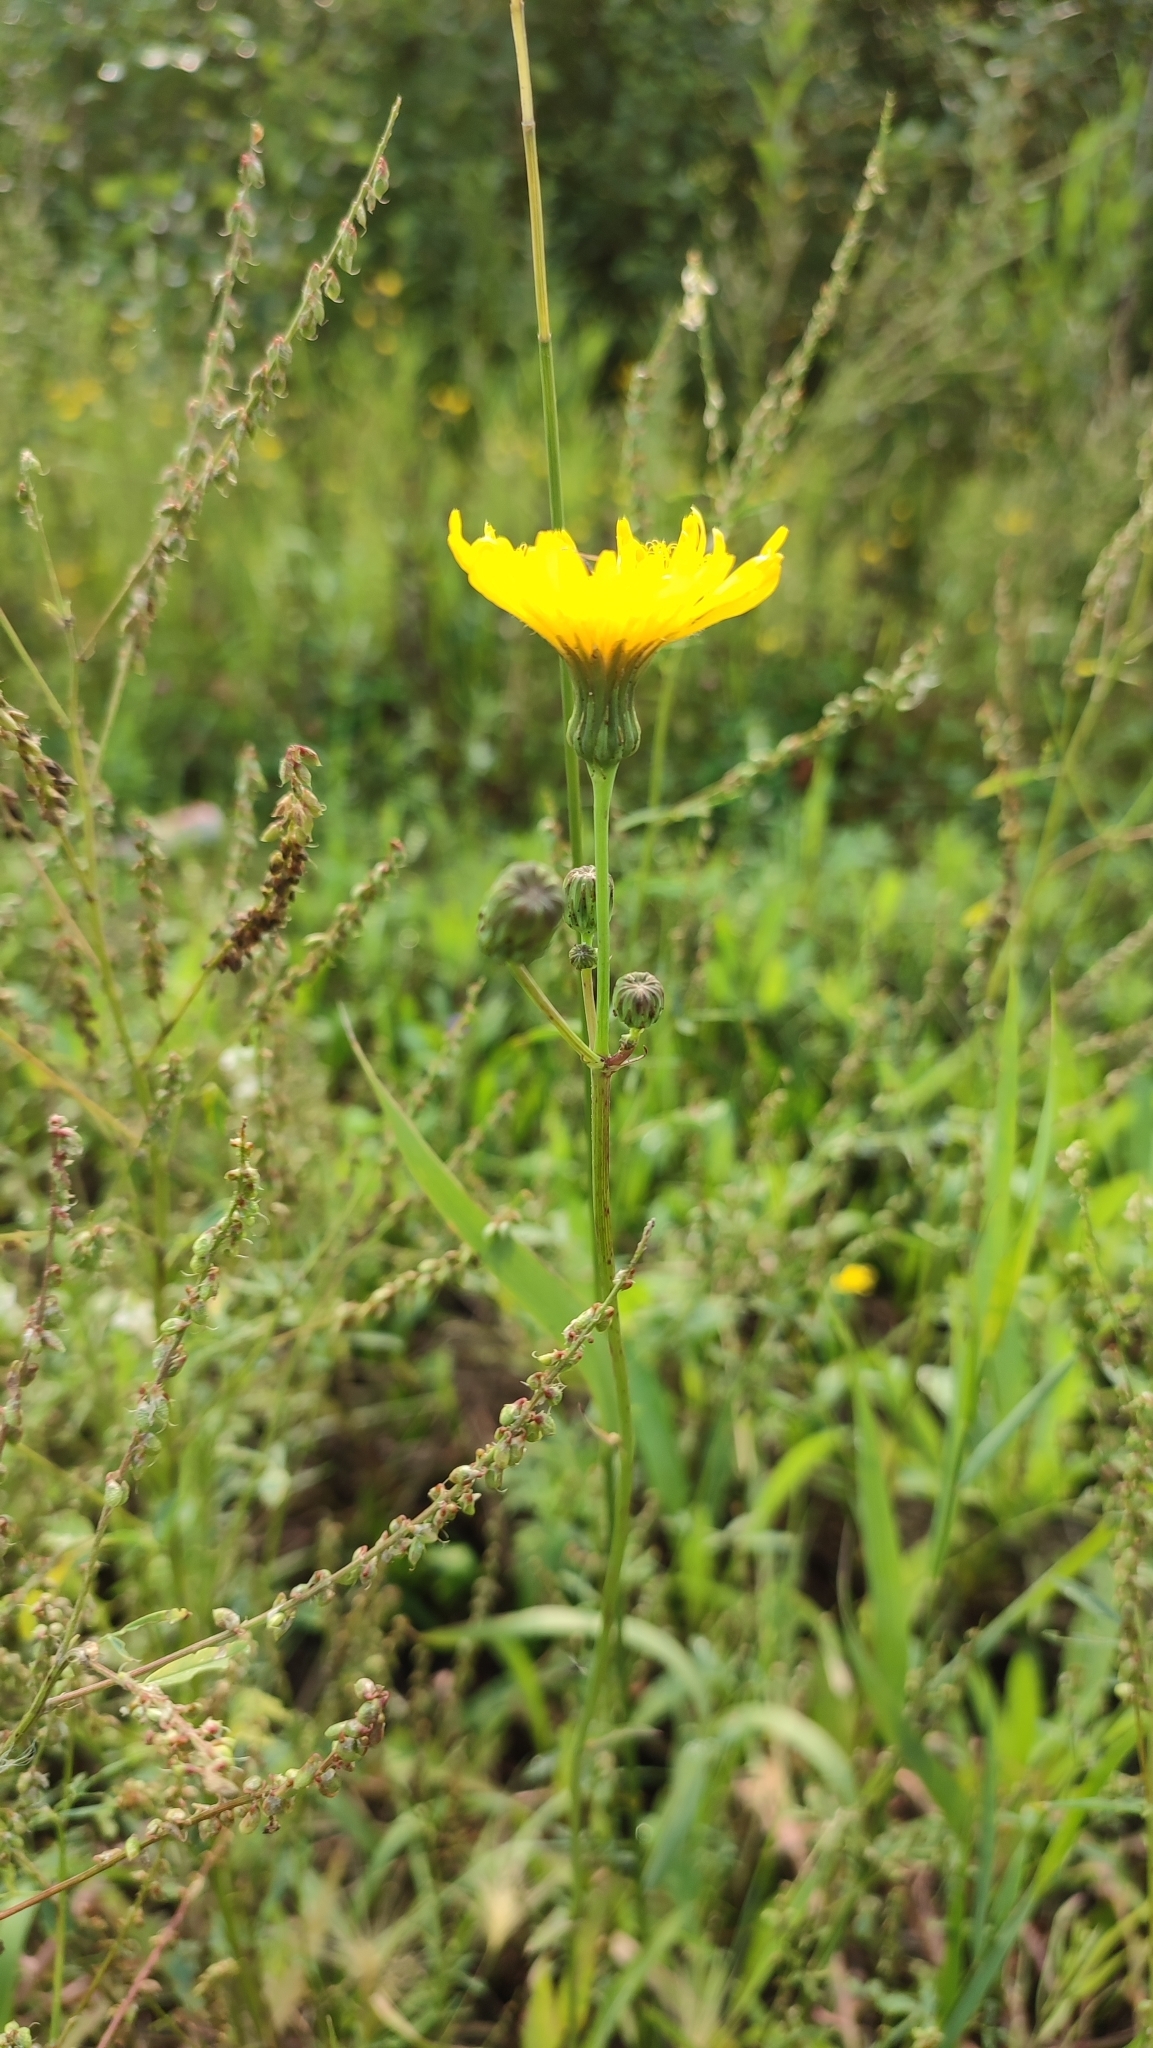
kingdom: Plantae
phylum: Tracheophyta
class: Magnoliopsida
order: Asterales
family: Asteraceae
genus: Sonchus
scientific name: Sonchus arvensis
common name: Perennial sow-thistle
